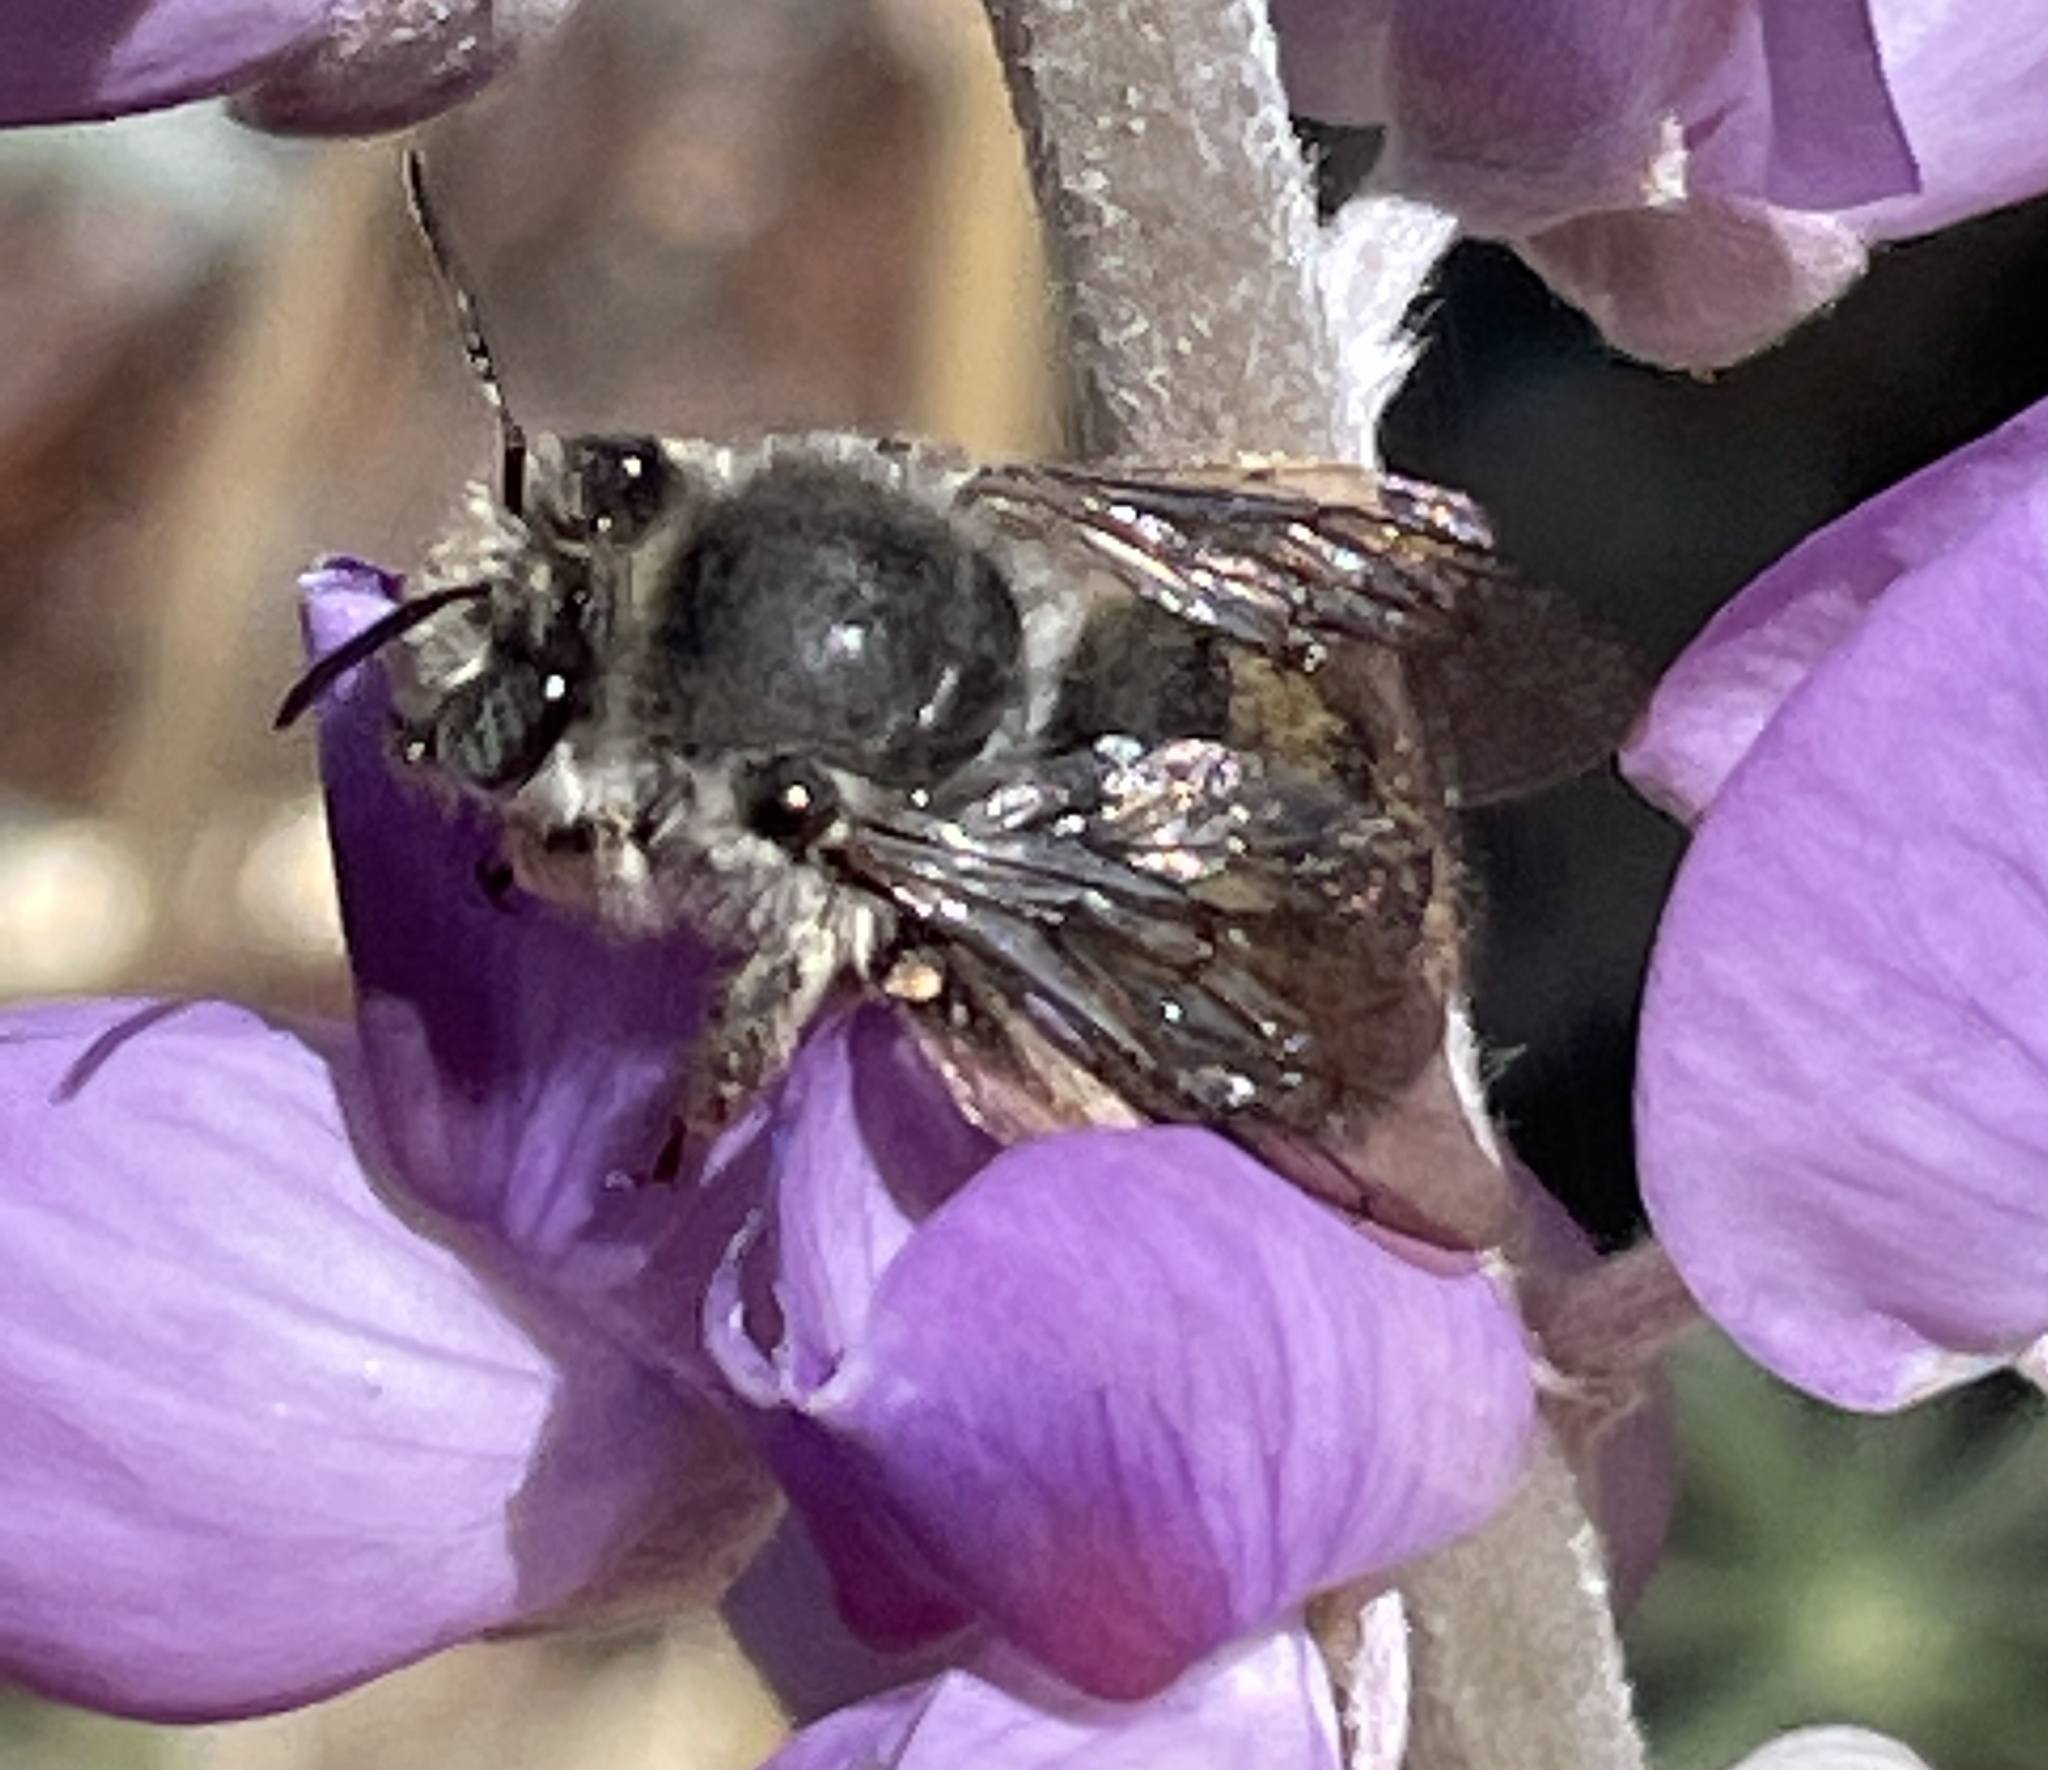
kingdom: Animalia
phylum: Arthropoda
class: Insecta
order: Hymenoptera
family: Apidae
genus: Habropoda
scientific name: Habropoda depressa
